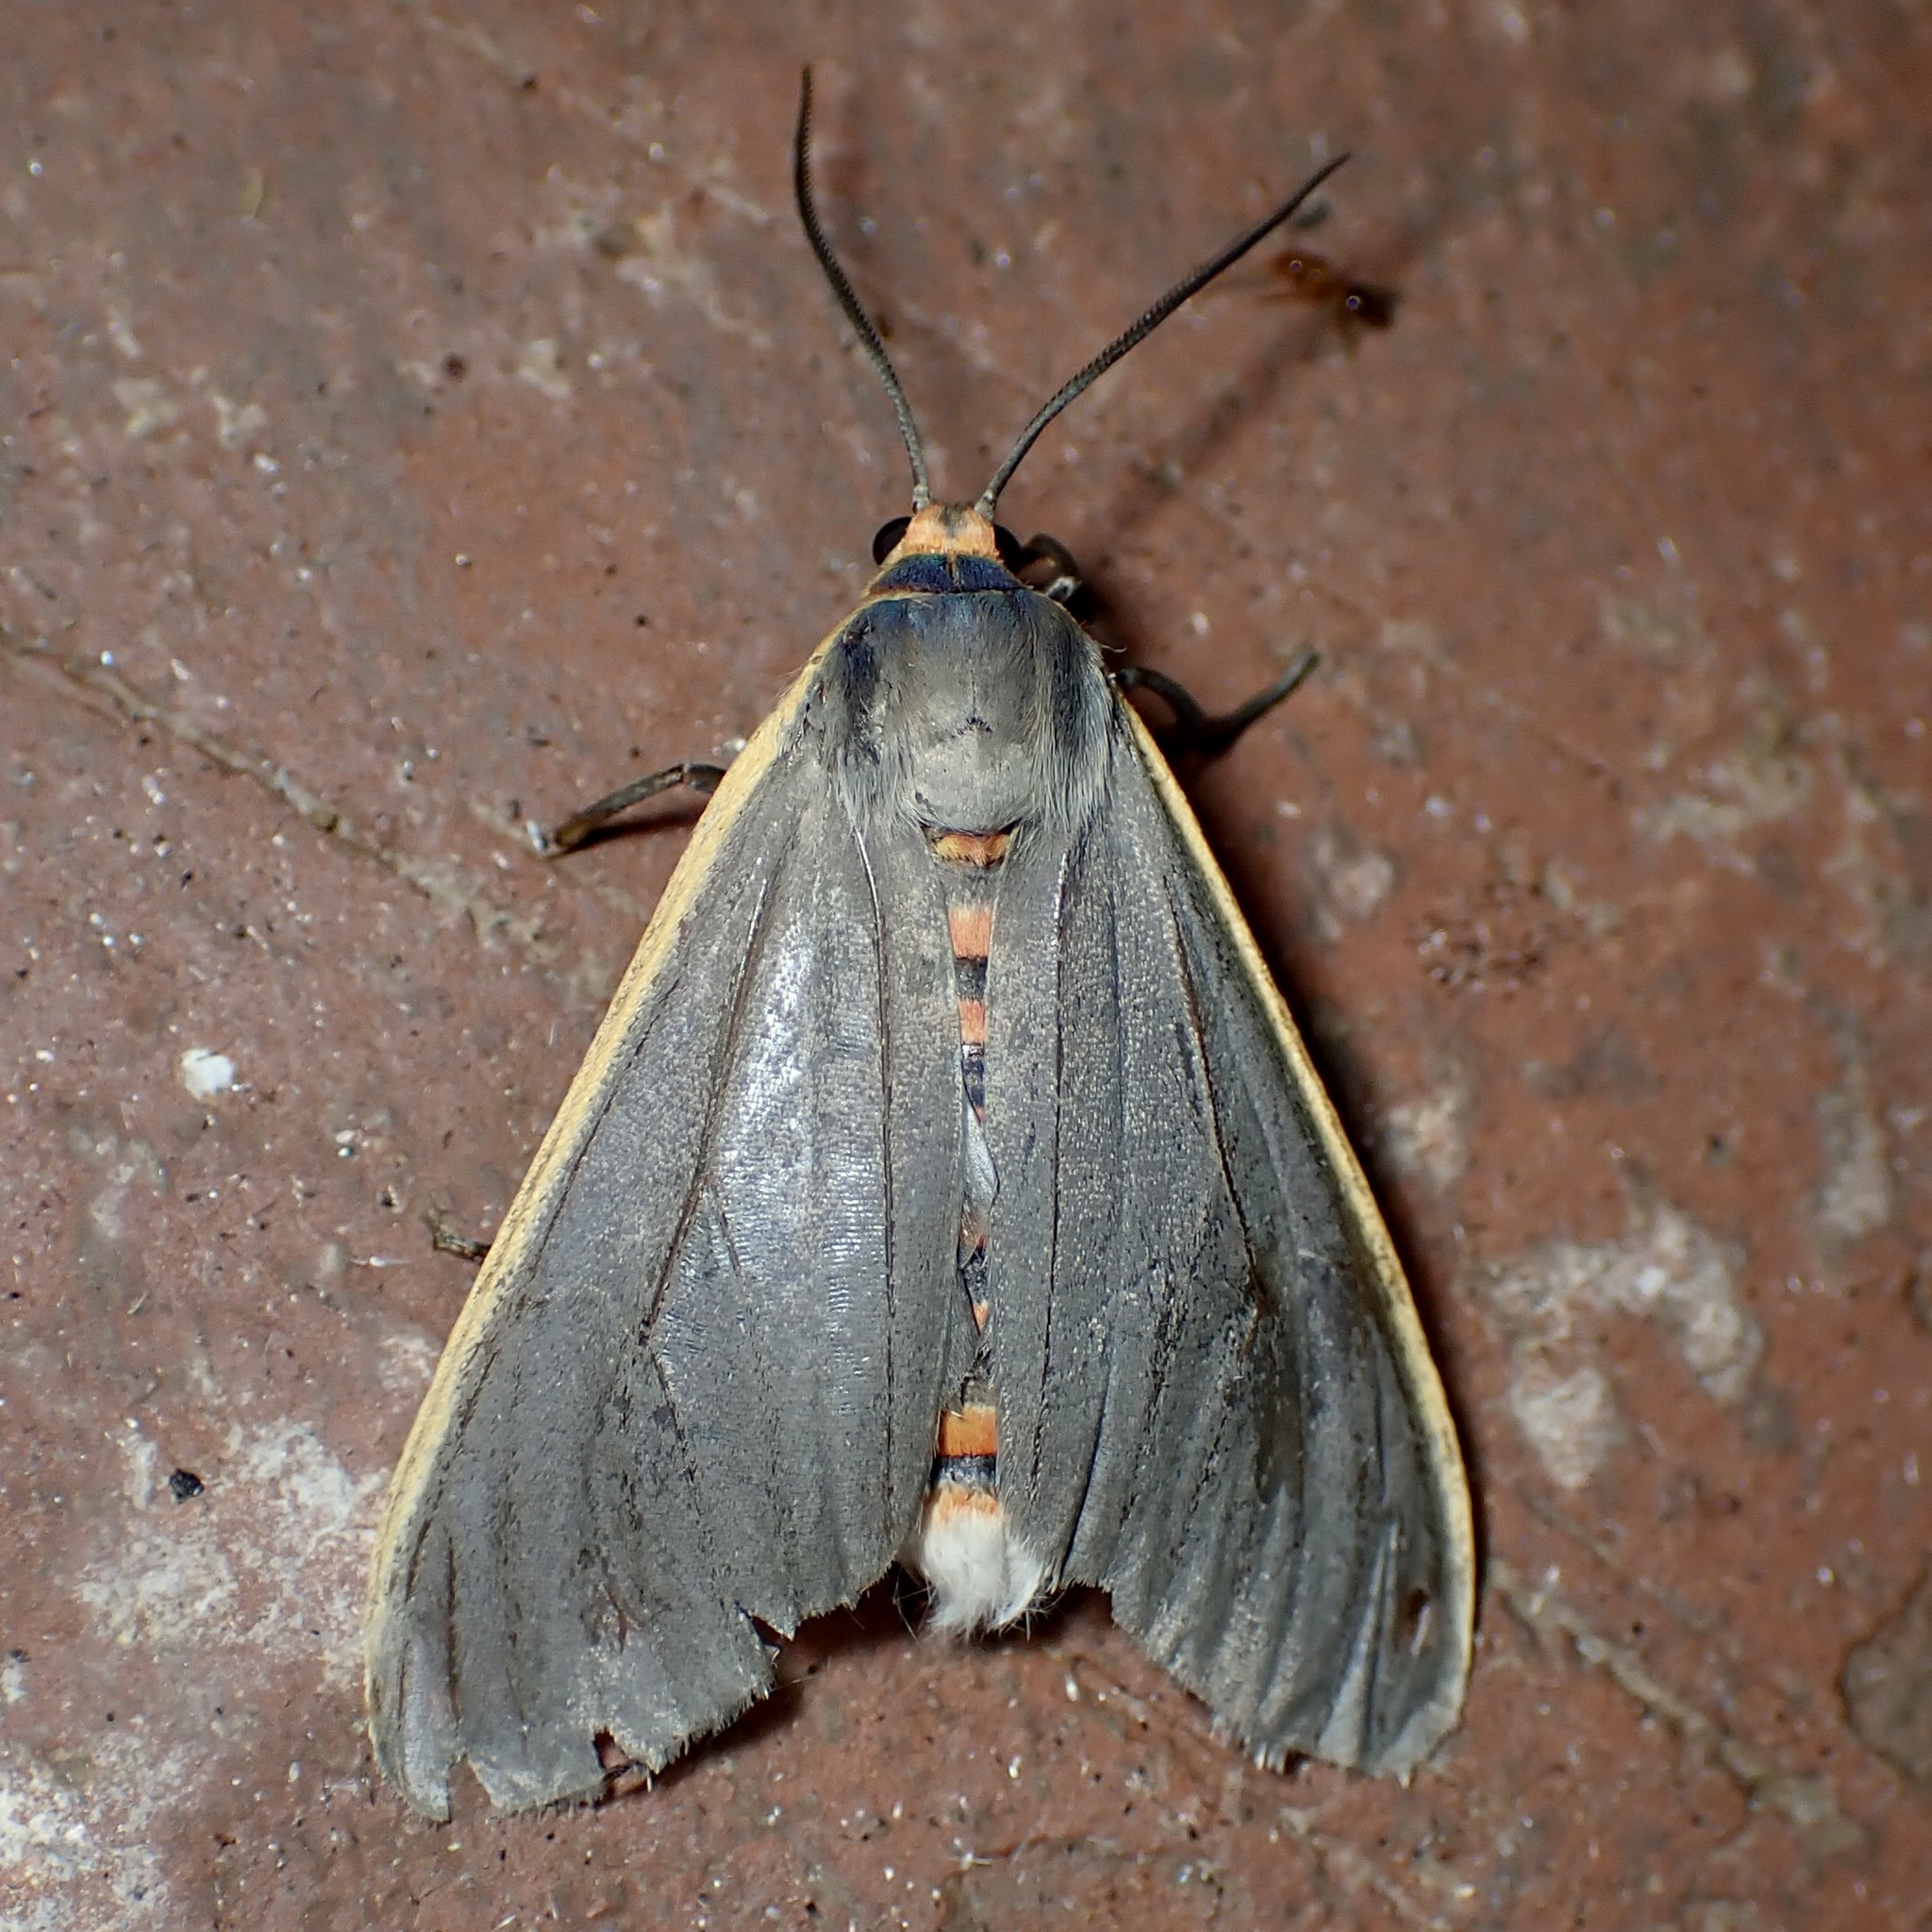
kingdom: Animalia
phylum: Arthropoda
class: Insecta
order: Lepidoptera
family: Erebidae
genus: Euchaetes
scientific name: Euchaetes antica
